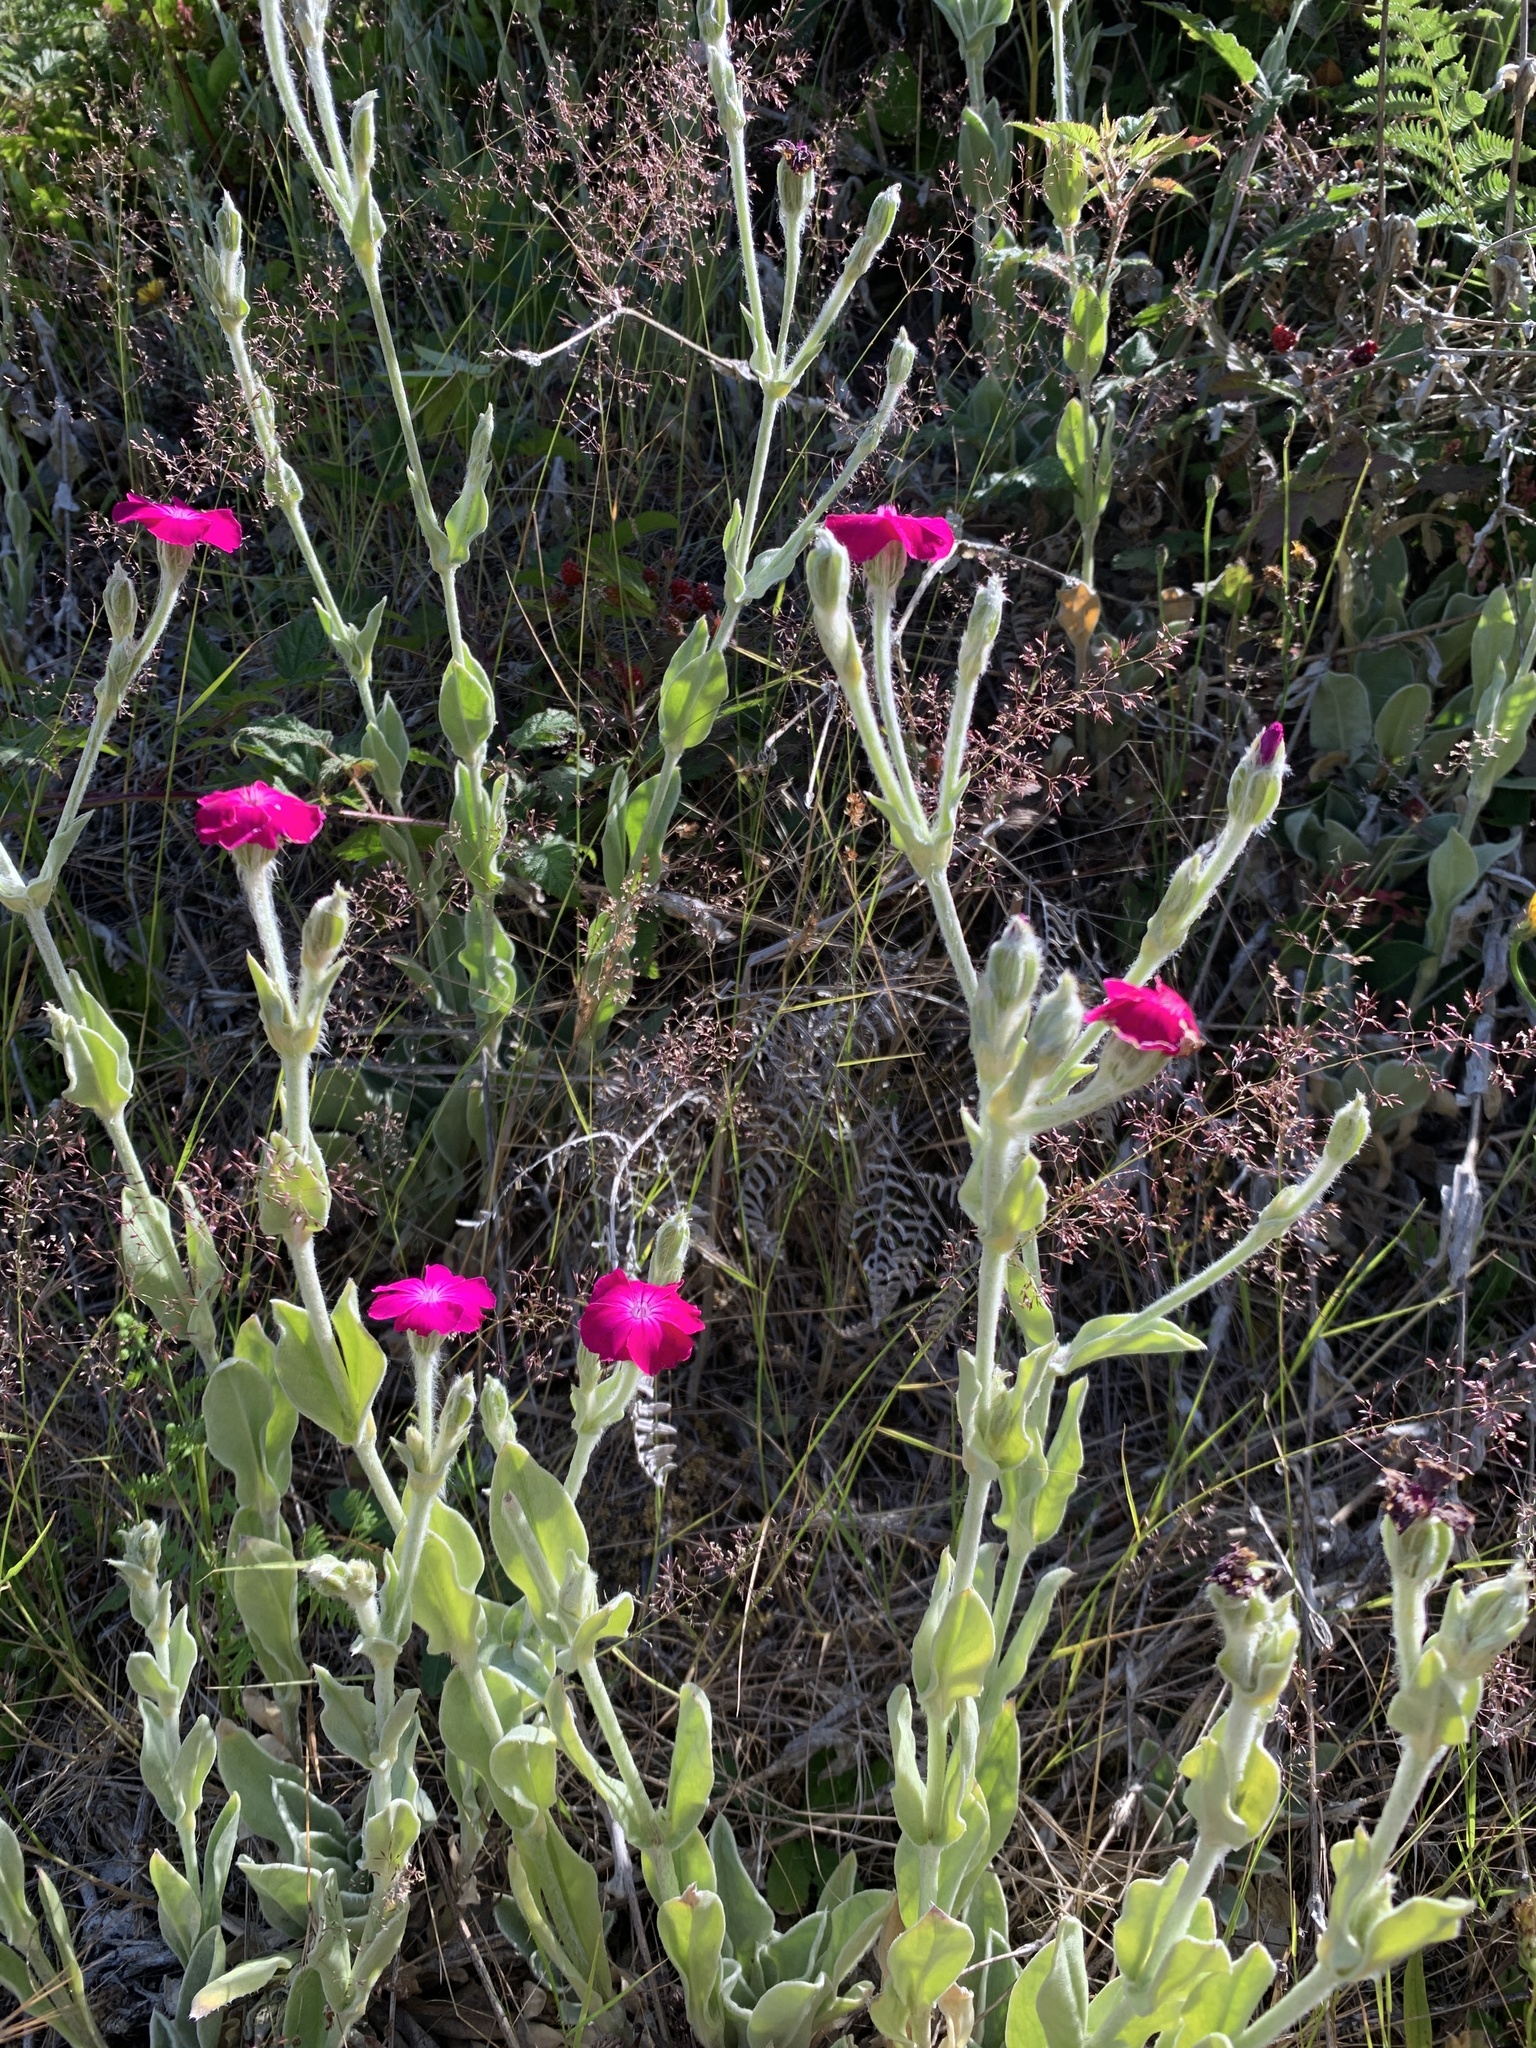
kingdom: Plantae
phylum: Tracheophyta
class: Magnoliopsida
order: Caryophyllales
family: Caryophyllaceae
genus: Silene
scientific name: Silene coronaria
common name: Rose campion
